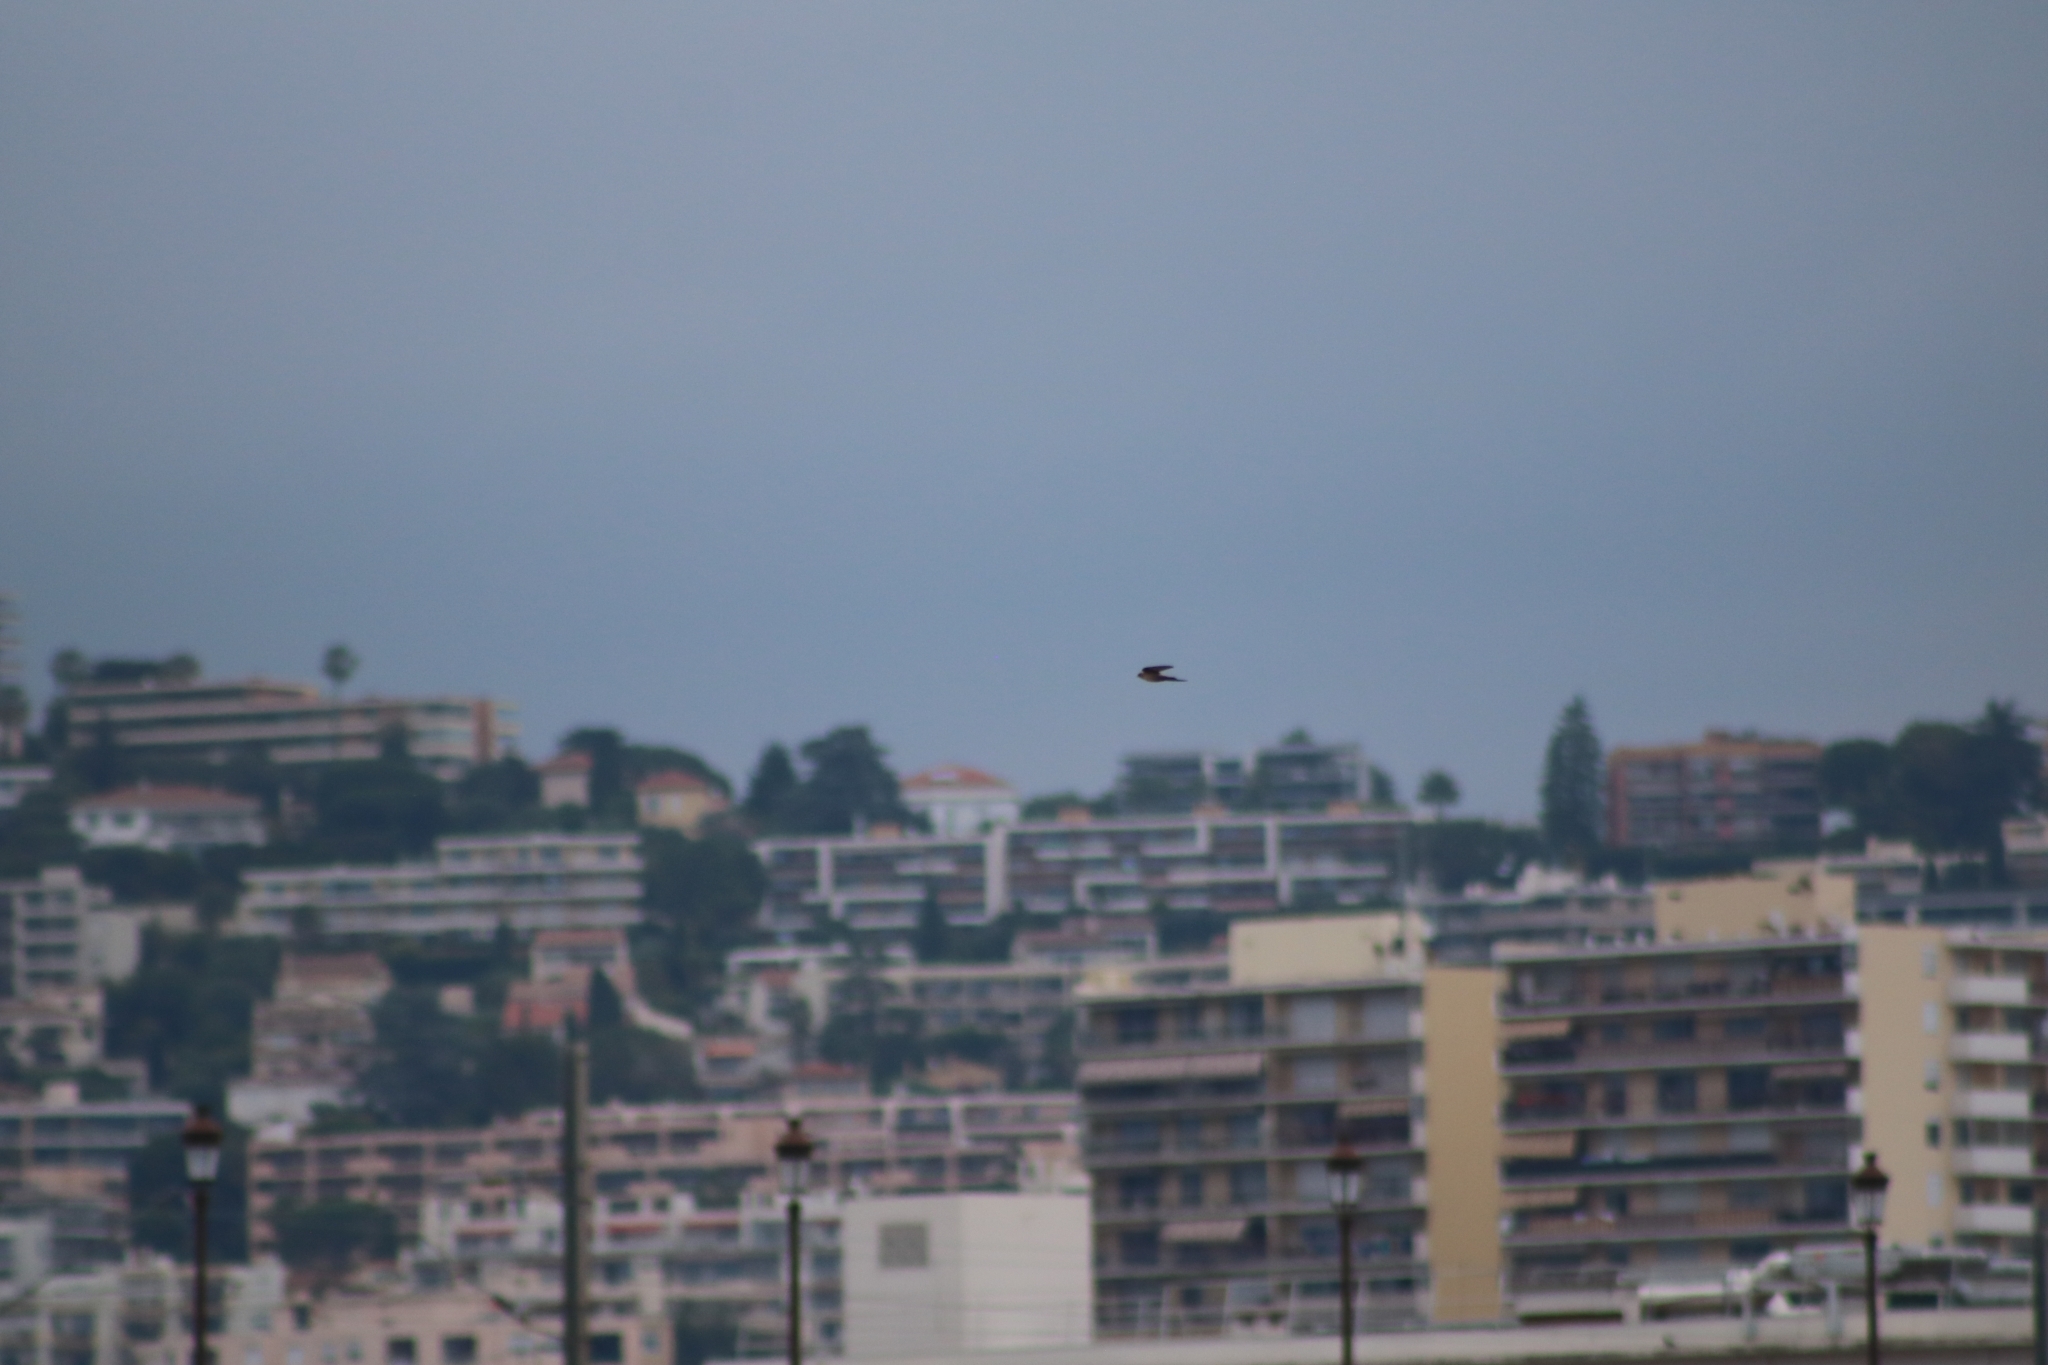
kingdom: Animalia
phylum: Chordata
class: Aves
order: Passeriformes
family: Hirundinidae
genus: Ptyonoprogne
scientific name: Ptyonoprogne rupestris
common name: Eurasian crag martin
